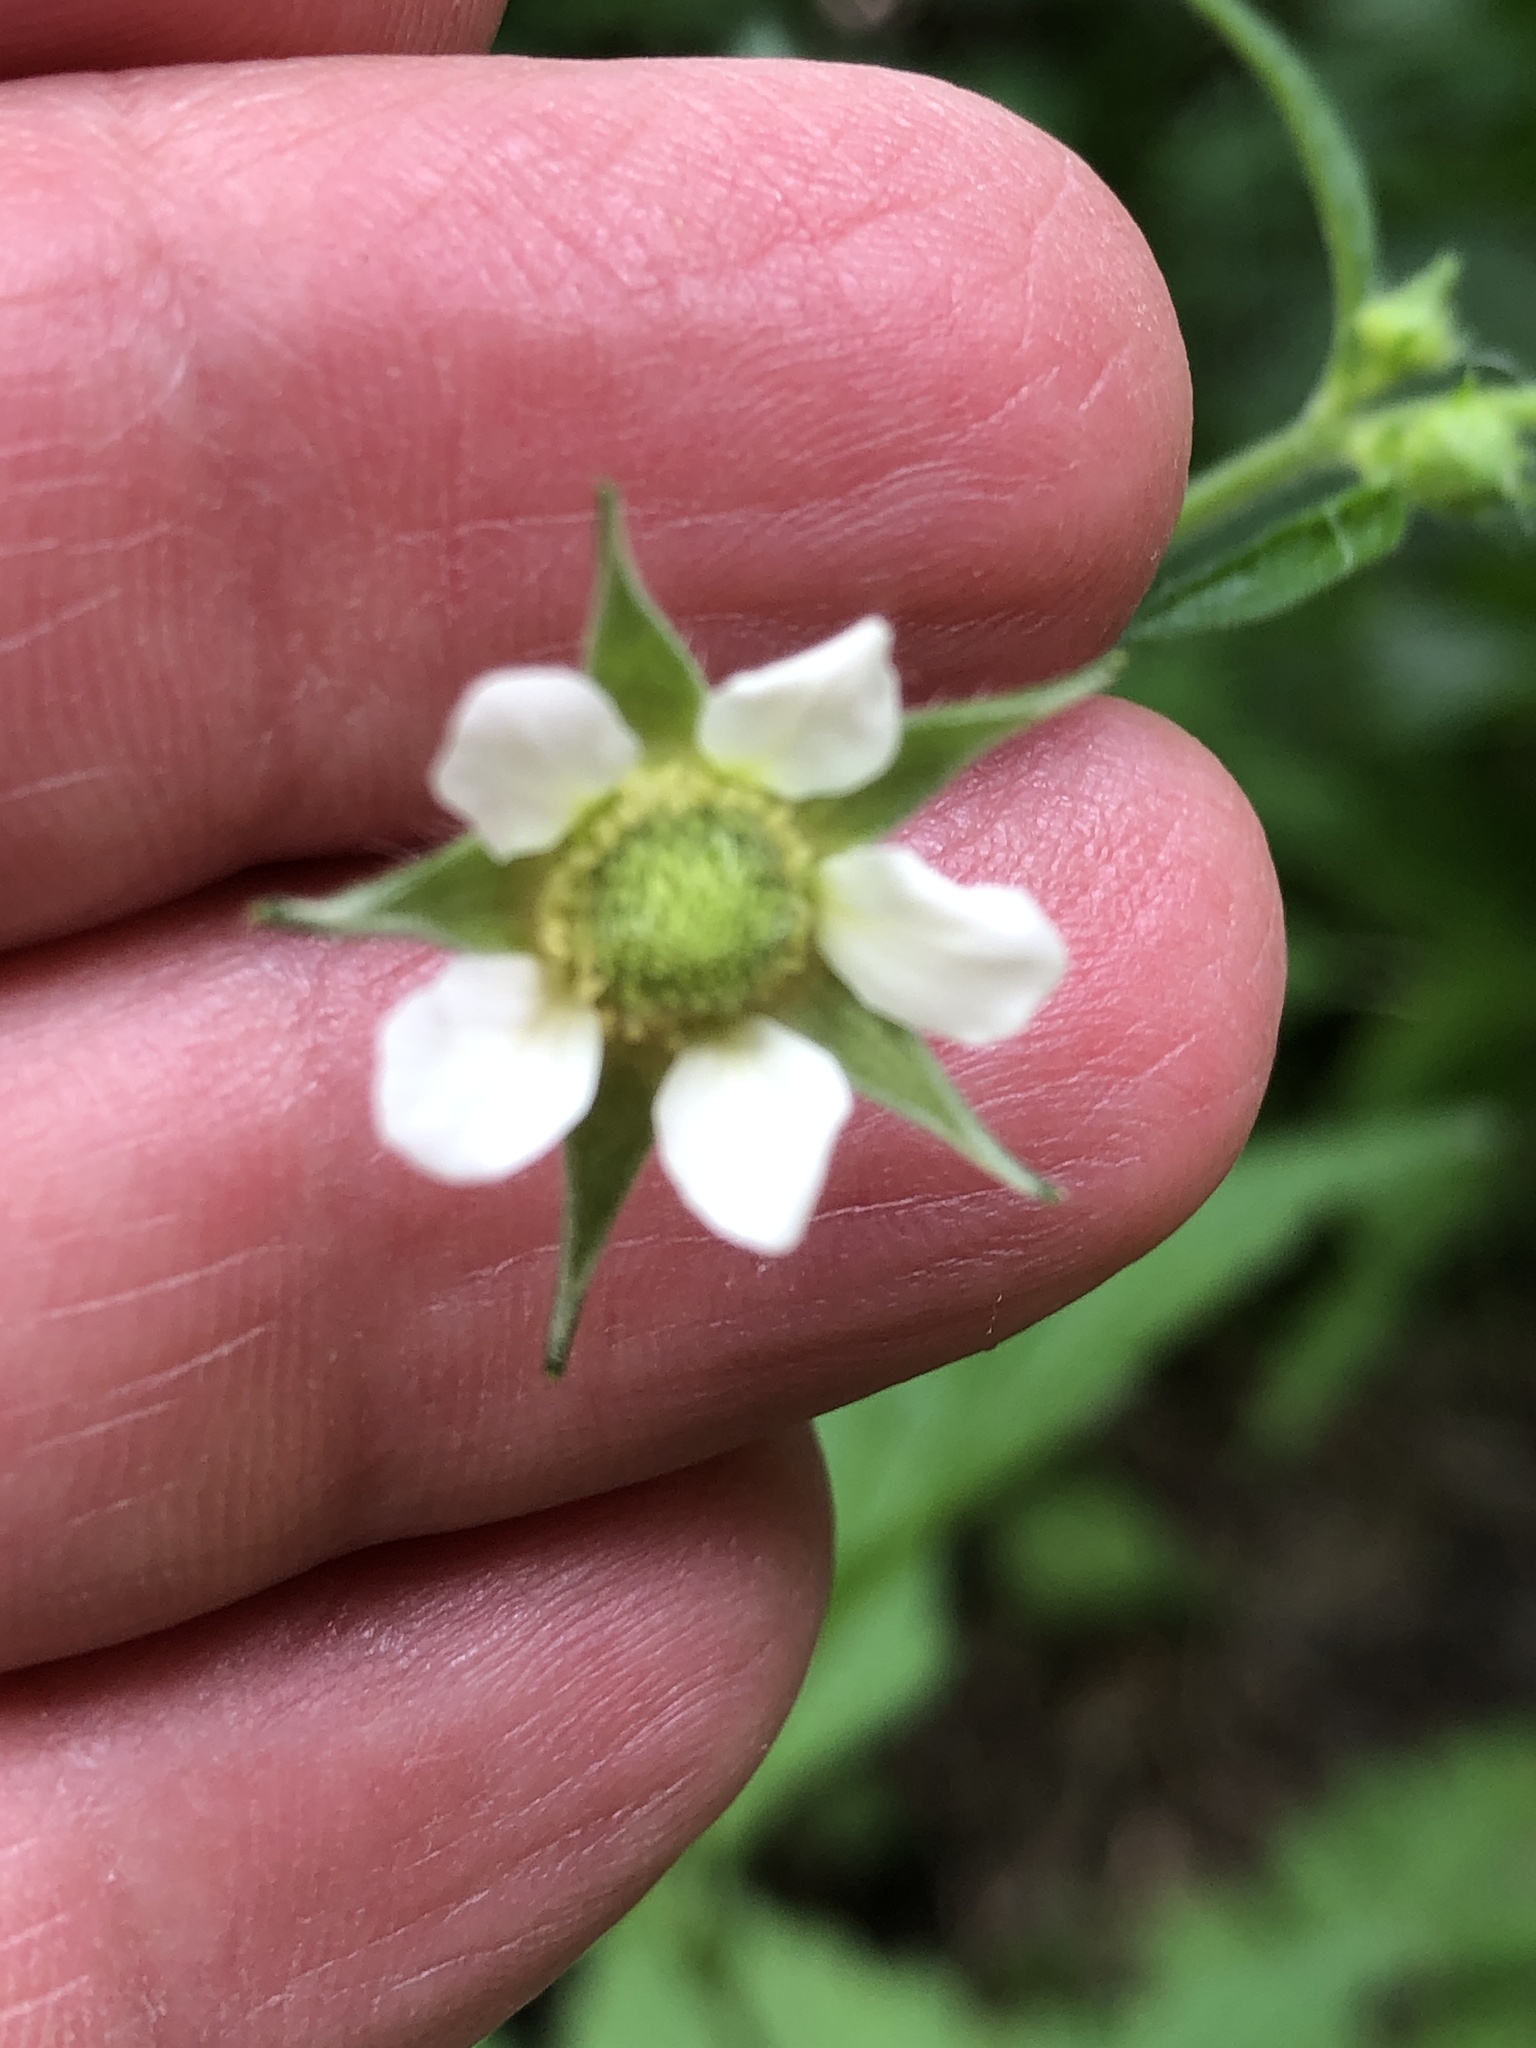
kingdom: Plantae
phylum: Tracheophyta
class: Magnoliopsida
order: Rosales
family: Rosaceae
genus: Geum
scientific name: Geum canadense
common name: White avens
